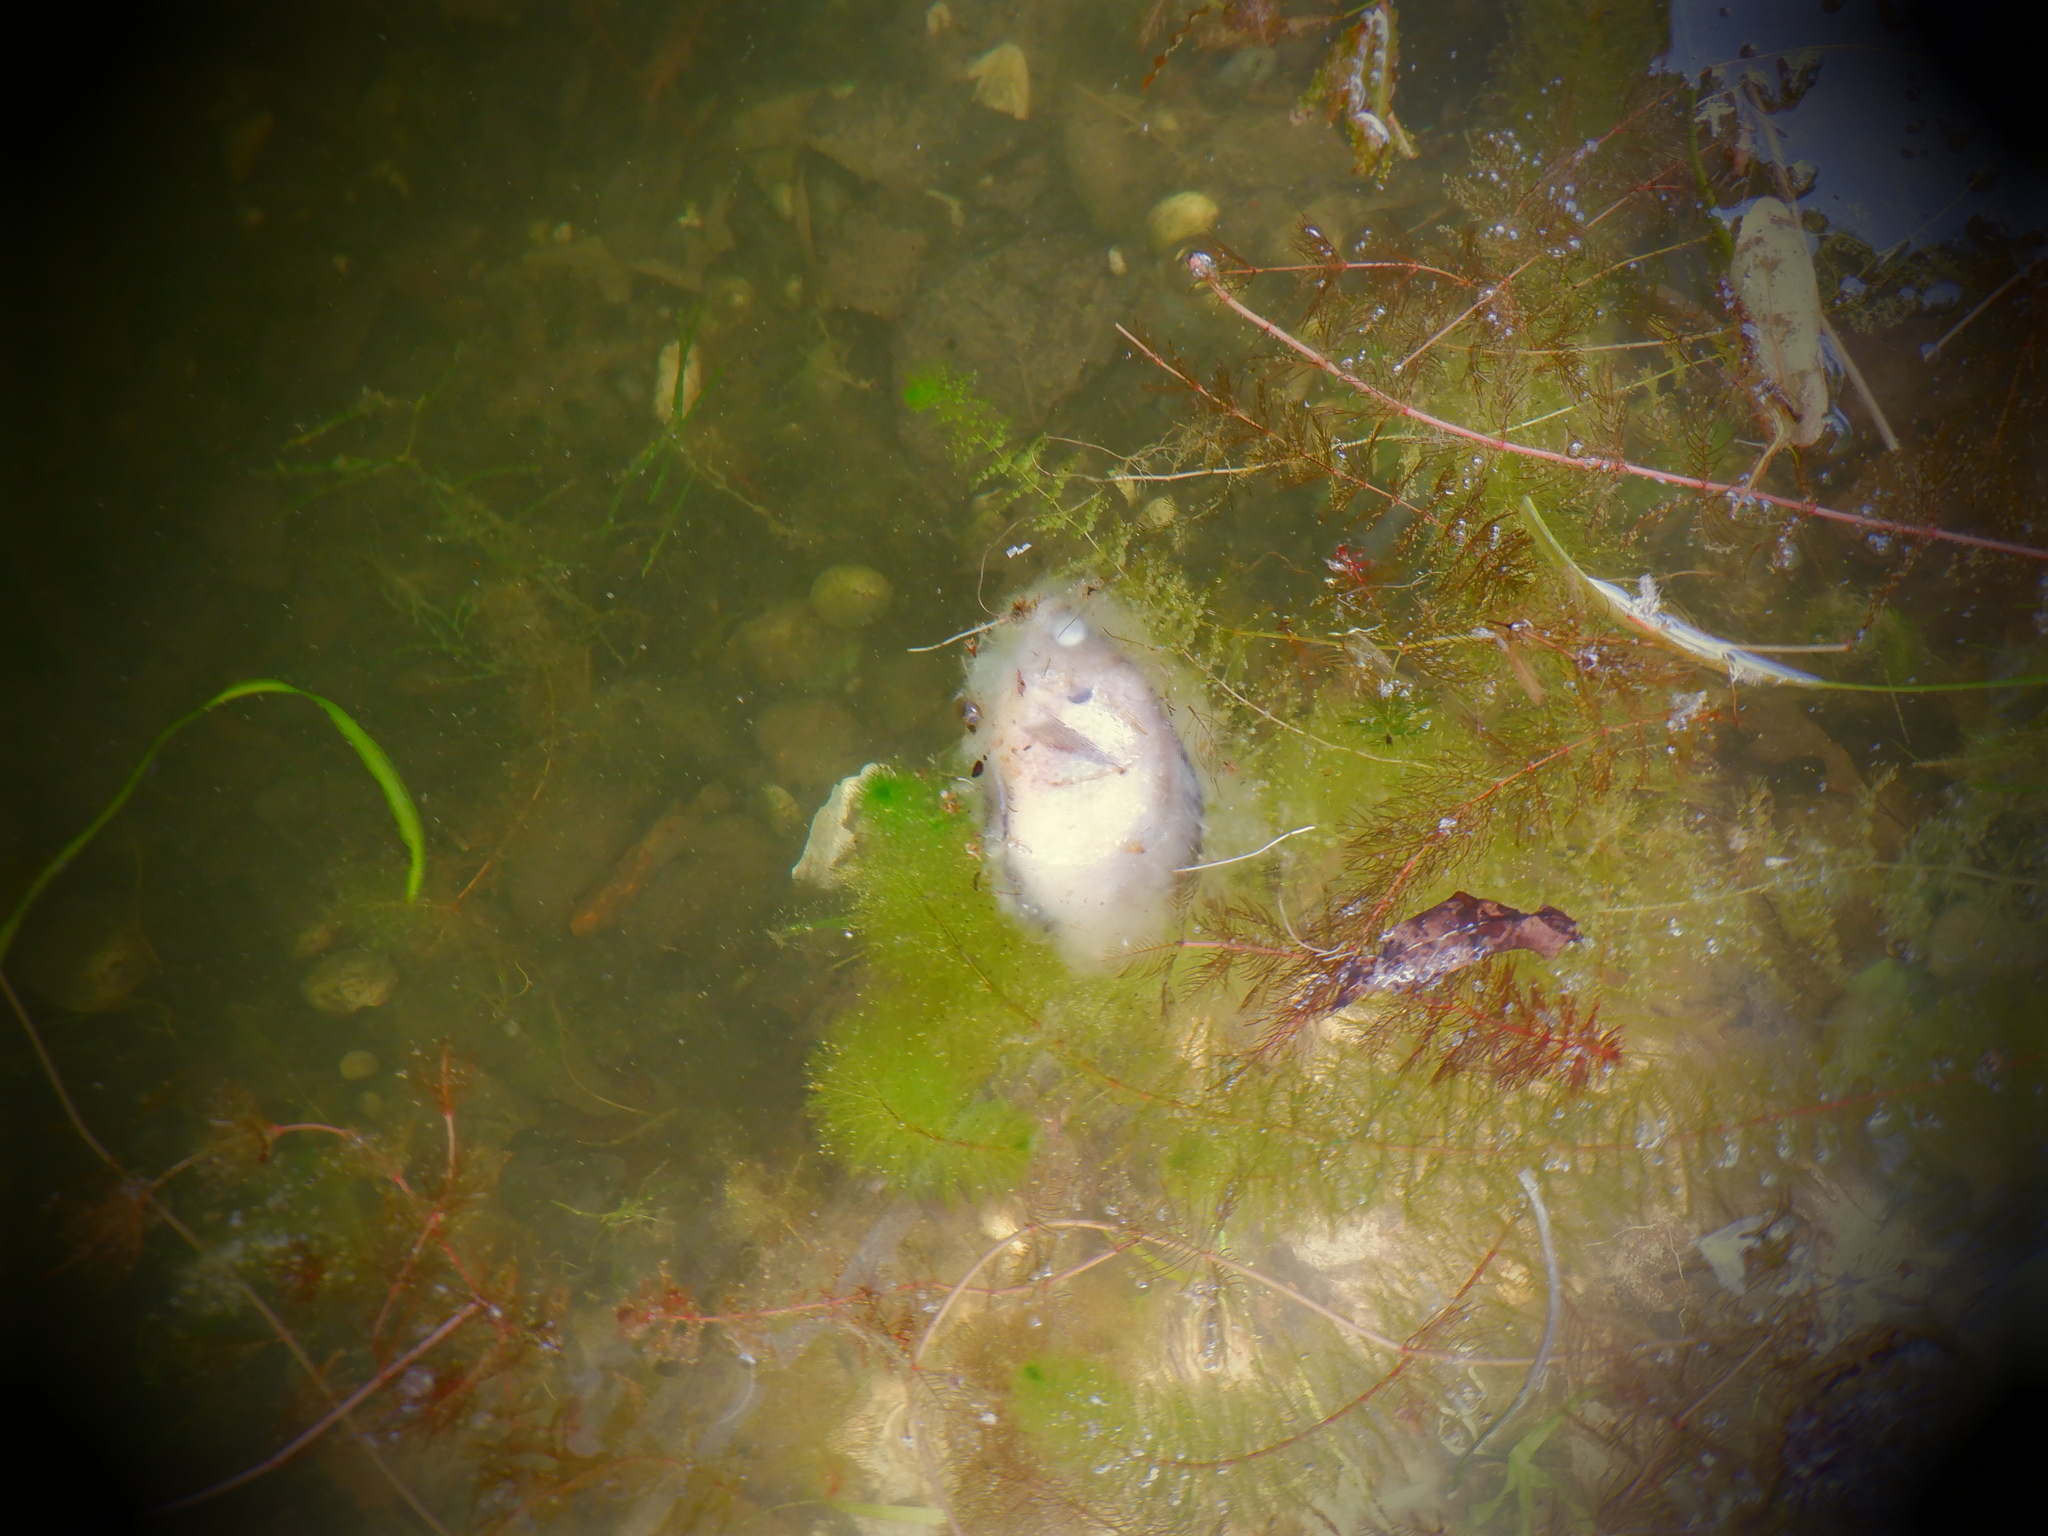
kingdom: Animalia
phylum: Chordata
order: Perciformes
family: Centrarchidae
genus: Lepomis
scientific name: Lepomis macrochirus
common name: Bluegill
